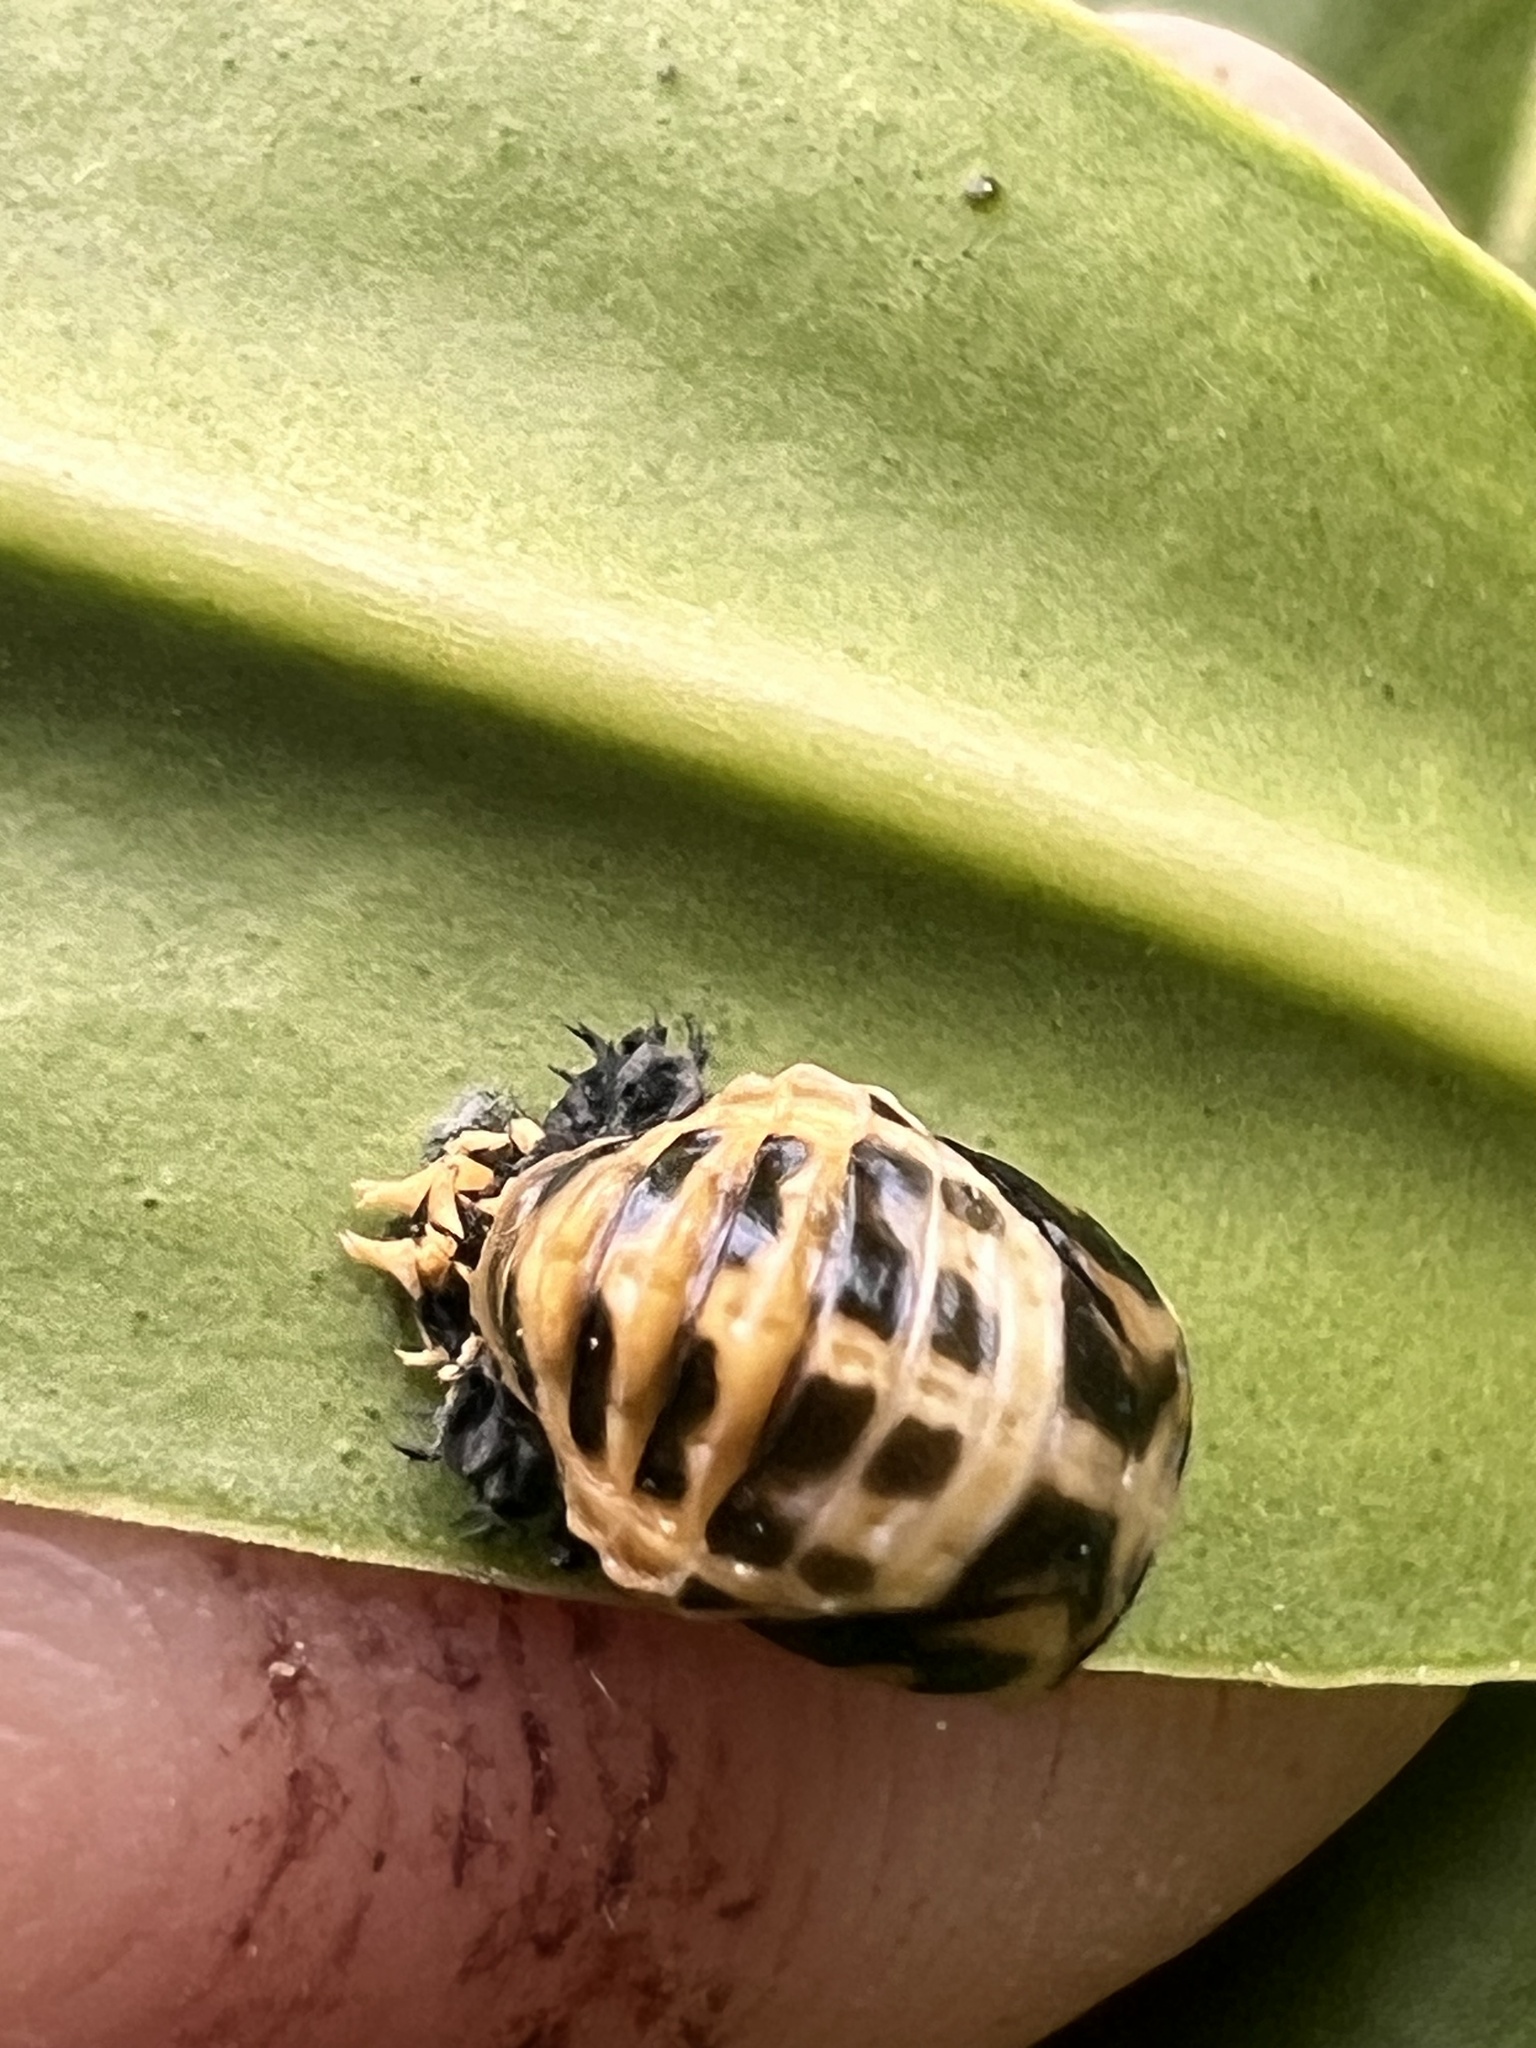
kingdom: Animalia
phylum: Arthropoda
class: Insecta
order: Coleoptera
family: Coccinellidae
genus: Harmonia
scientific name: Harmonia conformis
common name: Common spotted ladybird beetle
